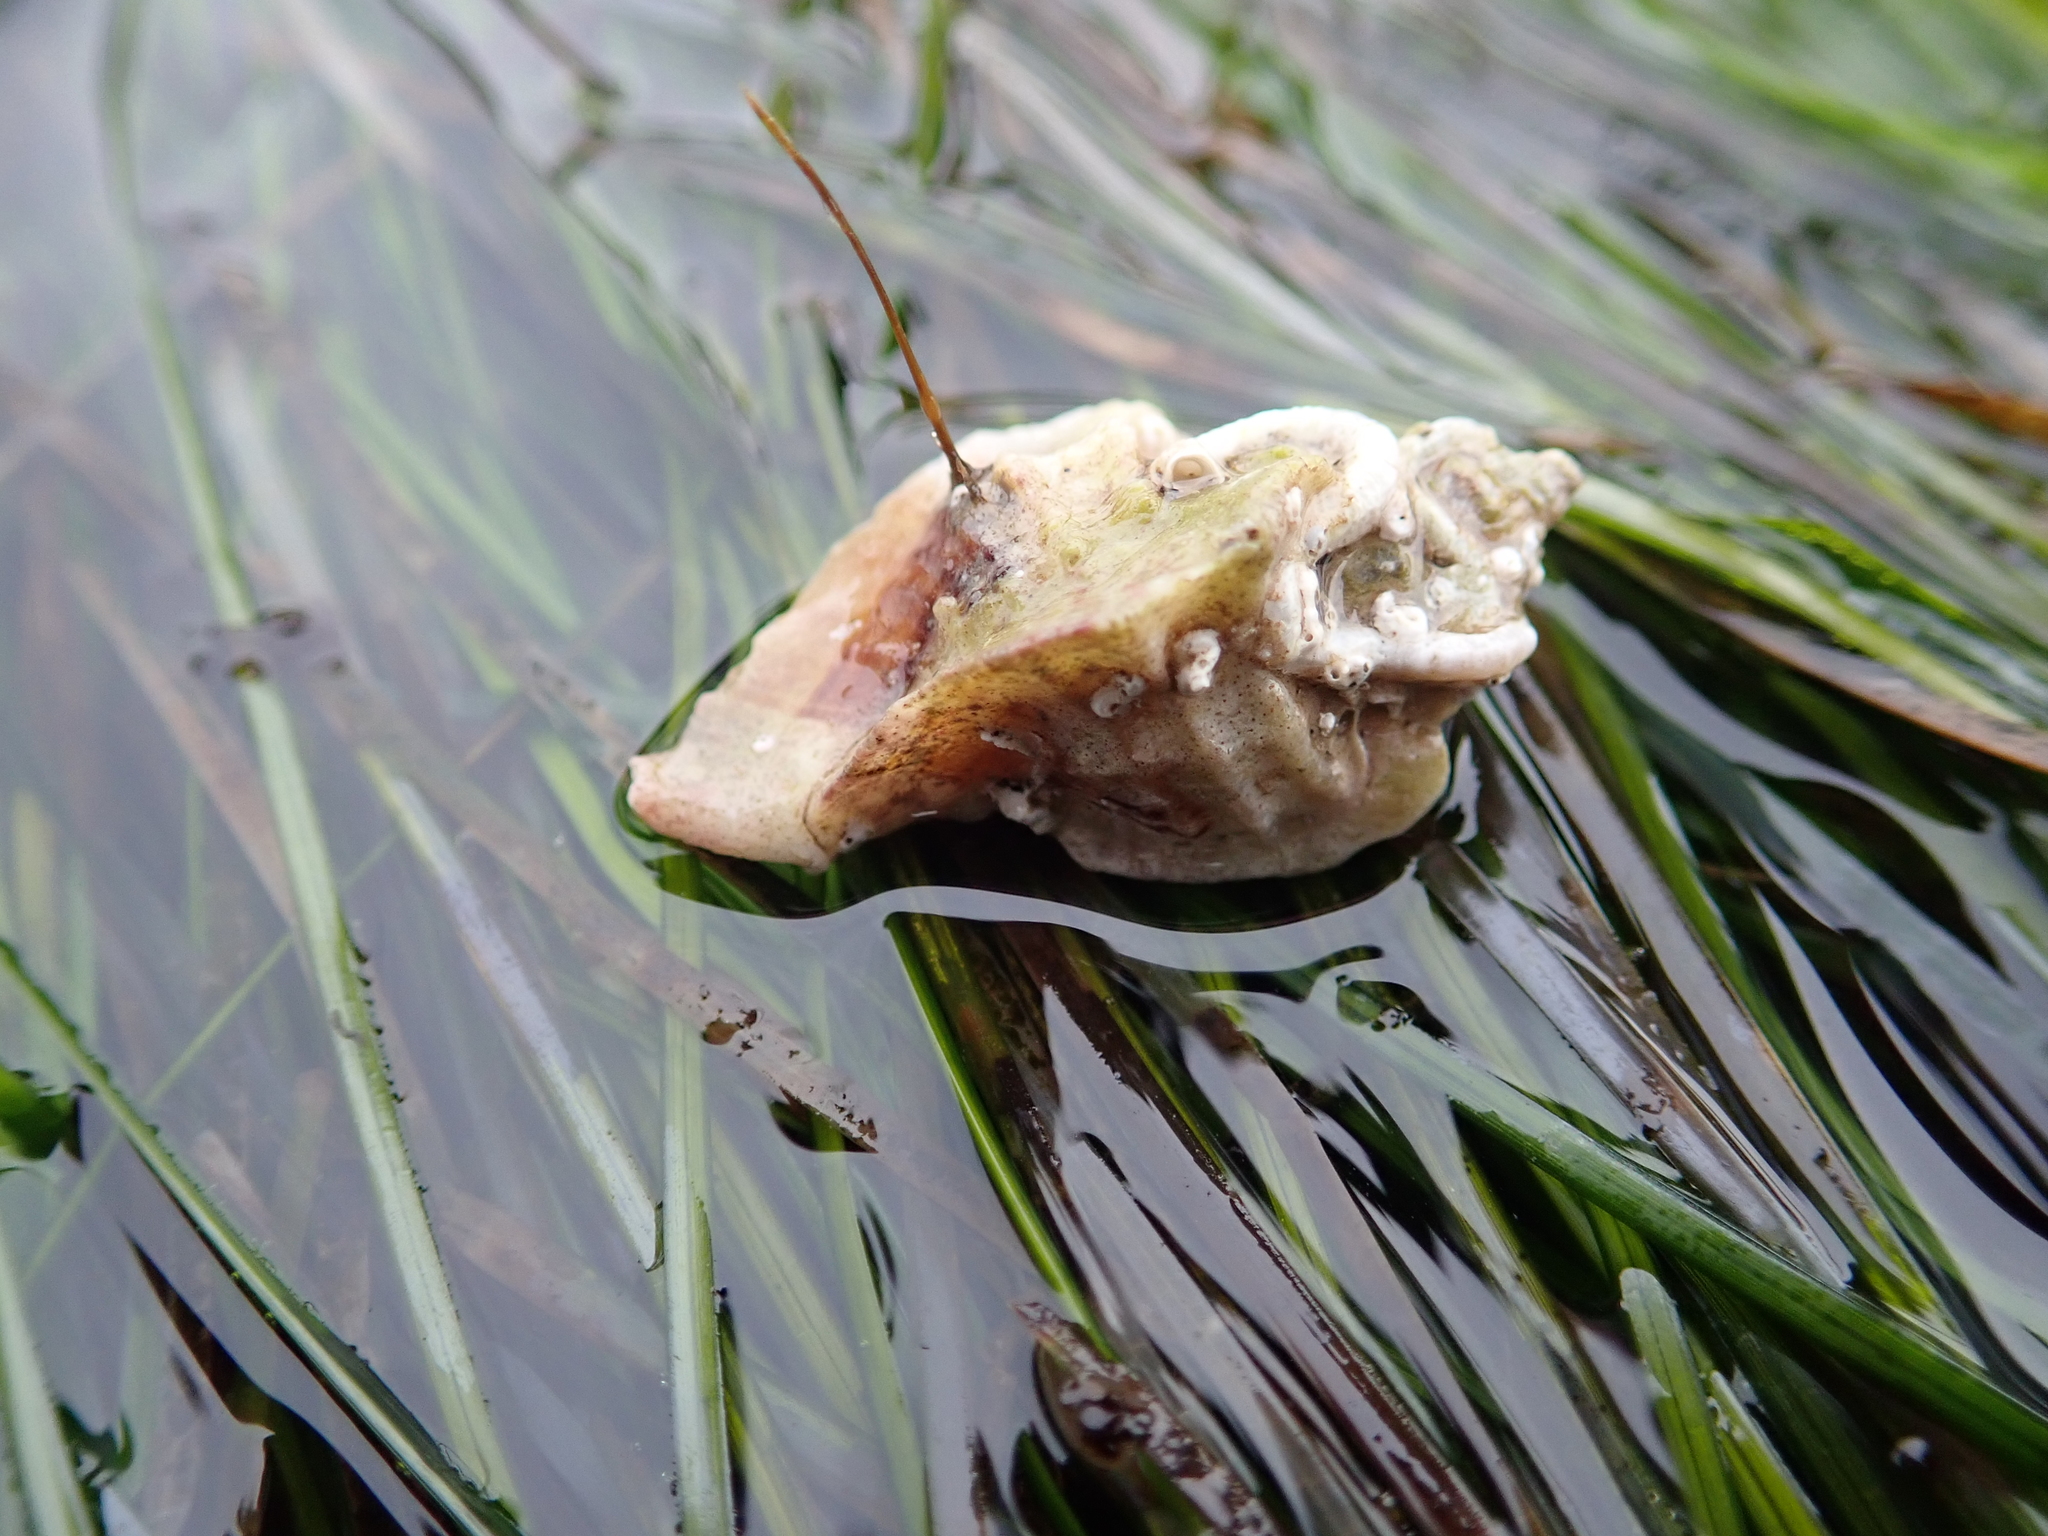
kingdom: Animalia
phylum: Mollusca
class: Gastropoda
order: Neogastropoda
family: Muricidae
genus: Ceratostoma
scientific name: Ceratostoma foliatum
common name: Foliate thorn purpura
